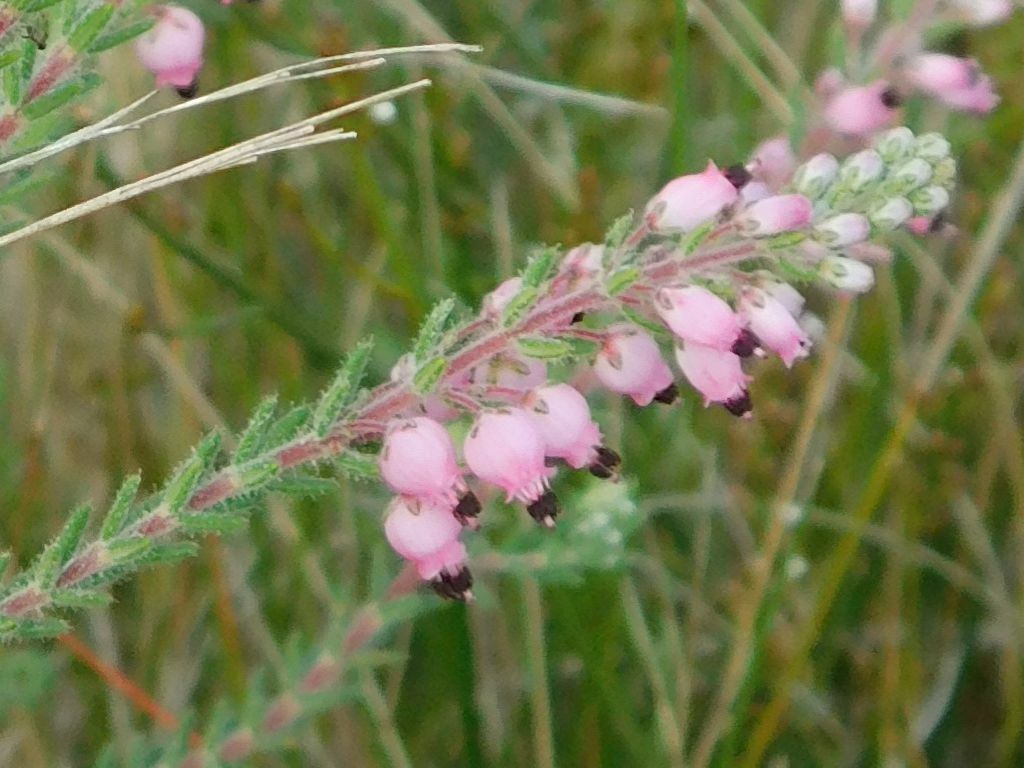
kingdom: Plantae
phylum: Tracheophyta
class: Magnoliopsida
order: Ericales
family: Ericaceae
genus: Erica
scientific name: Erica racemosa
